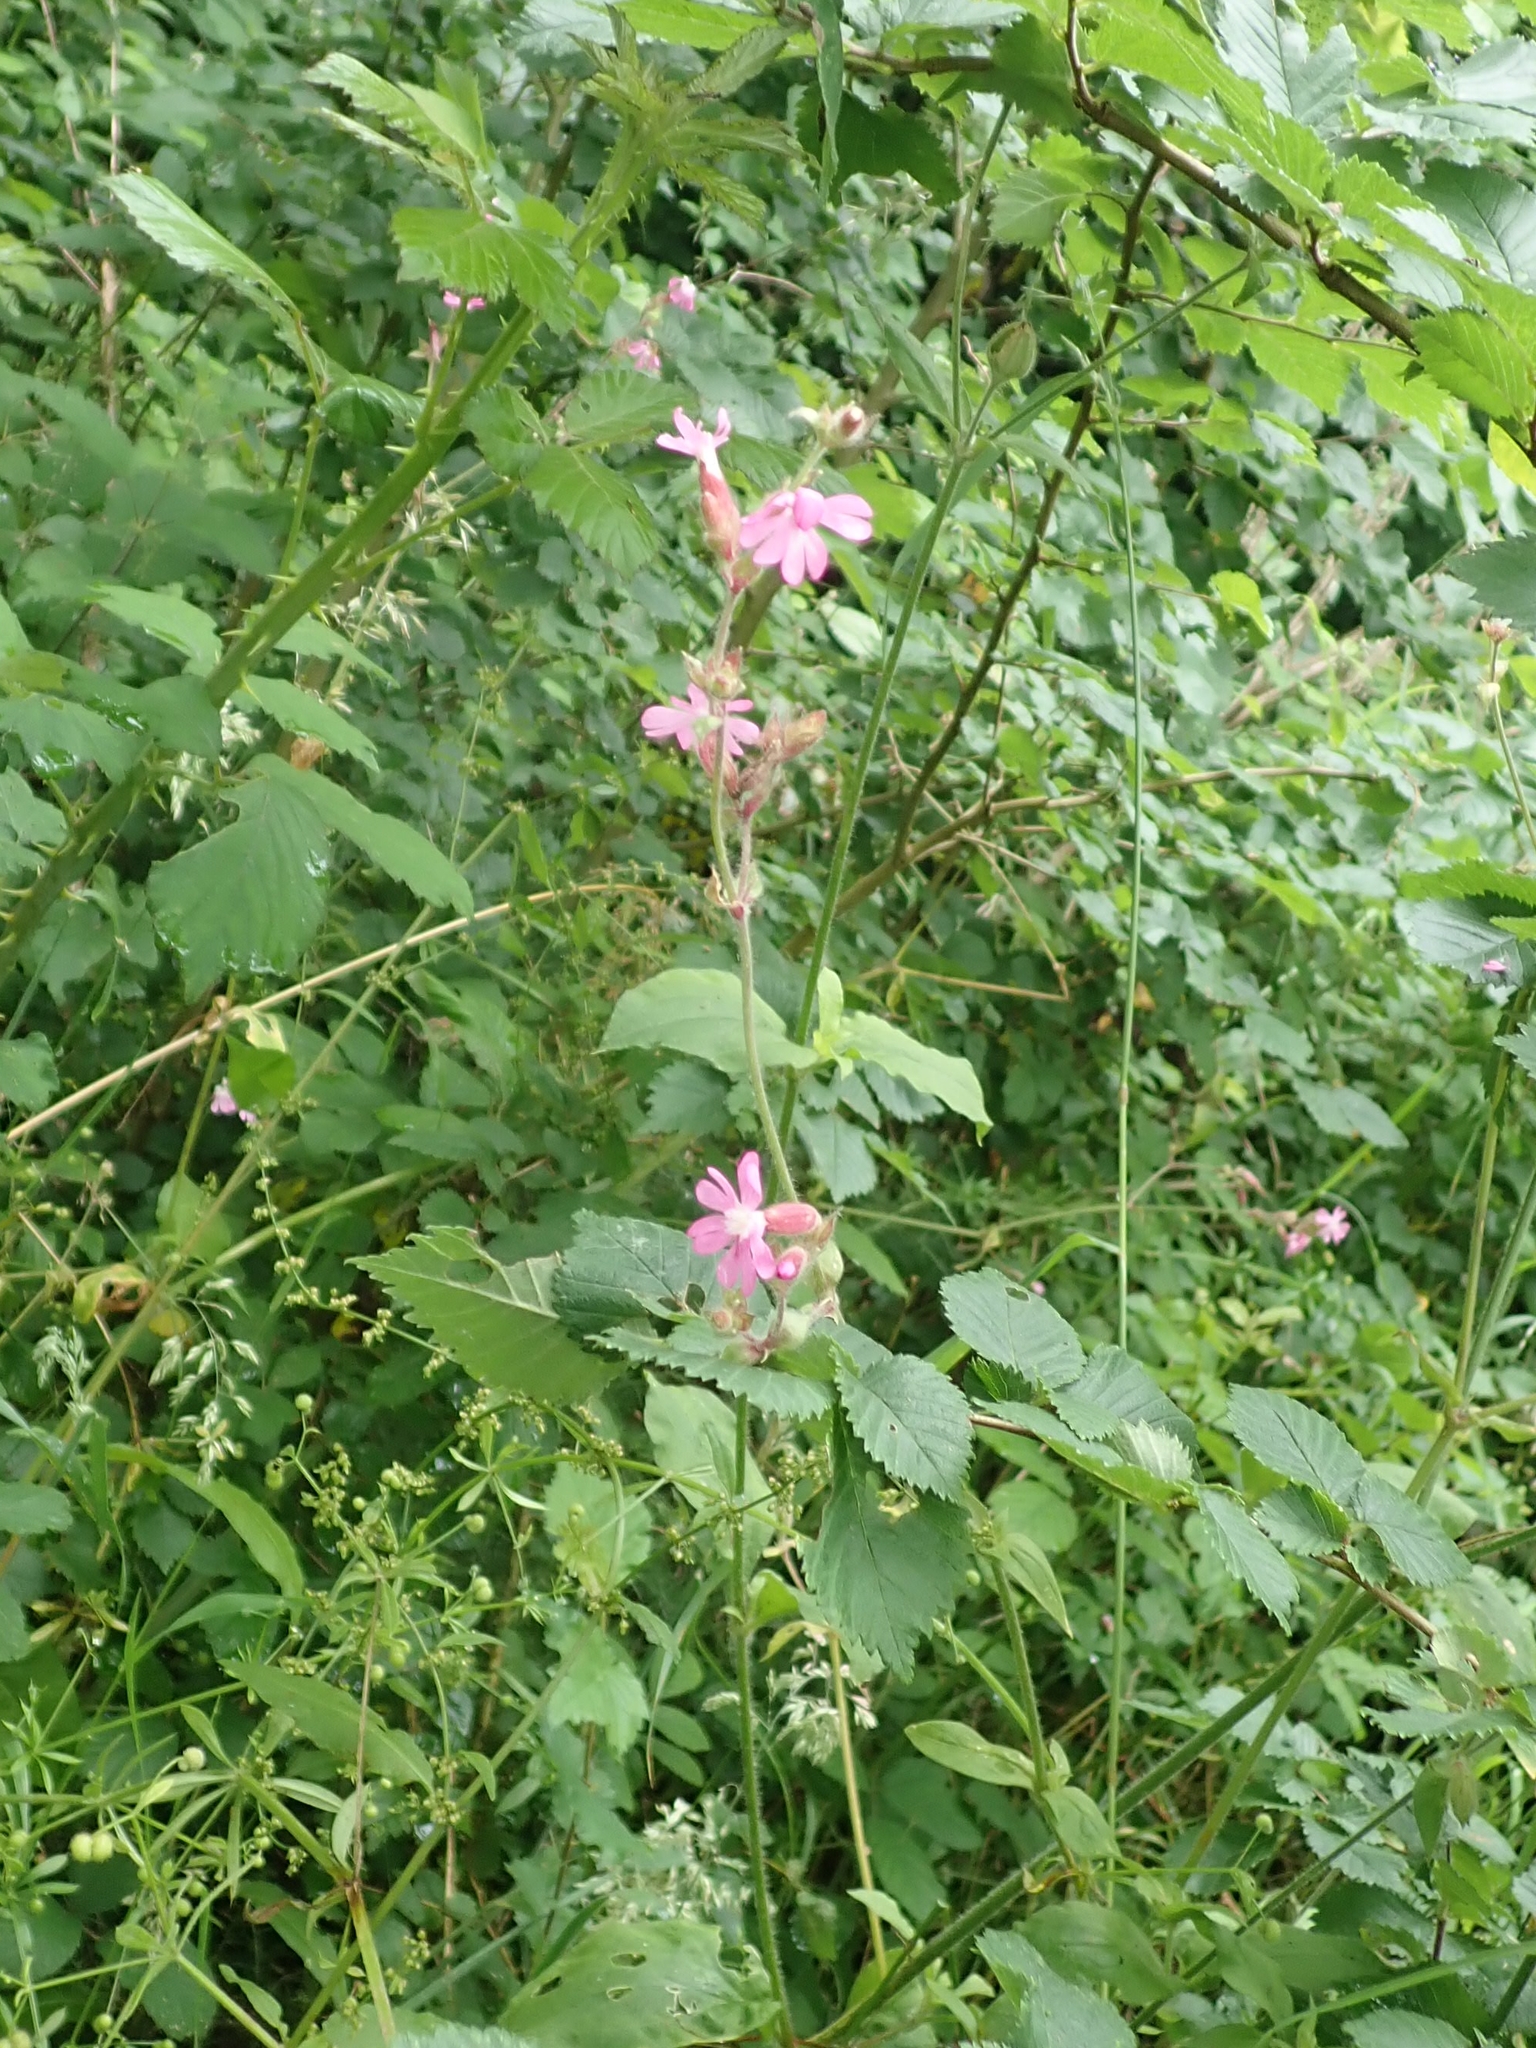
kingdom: Plantae
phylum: Tracheophyta
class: Magnoliopsida
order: Caryophyllales
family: Caryophyllaceae
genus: Silene
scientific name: Silene dioica
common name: Red campion
